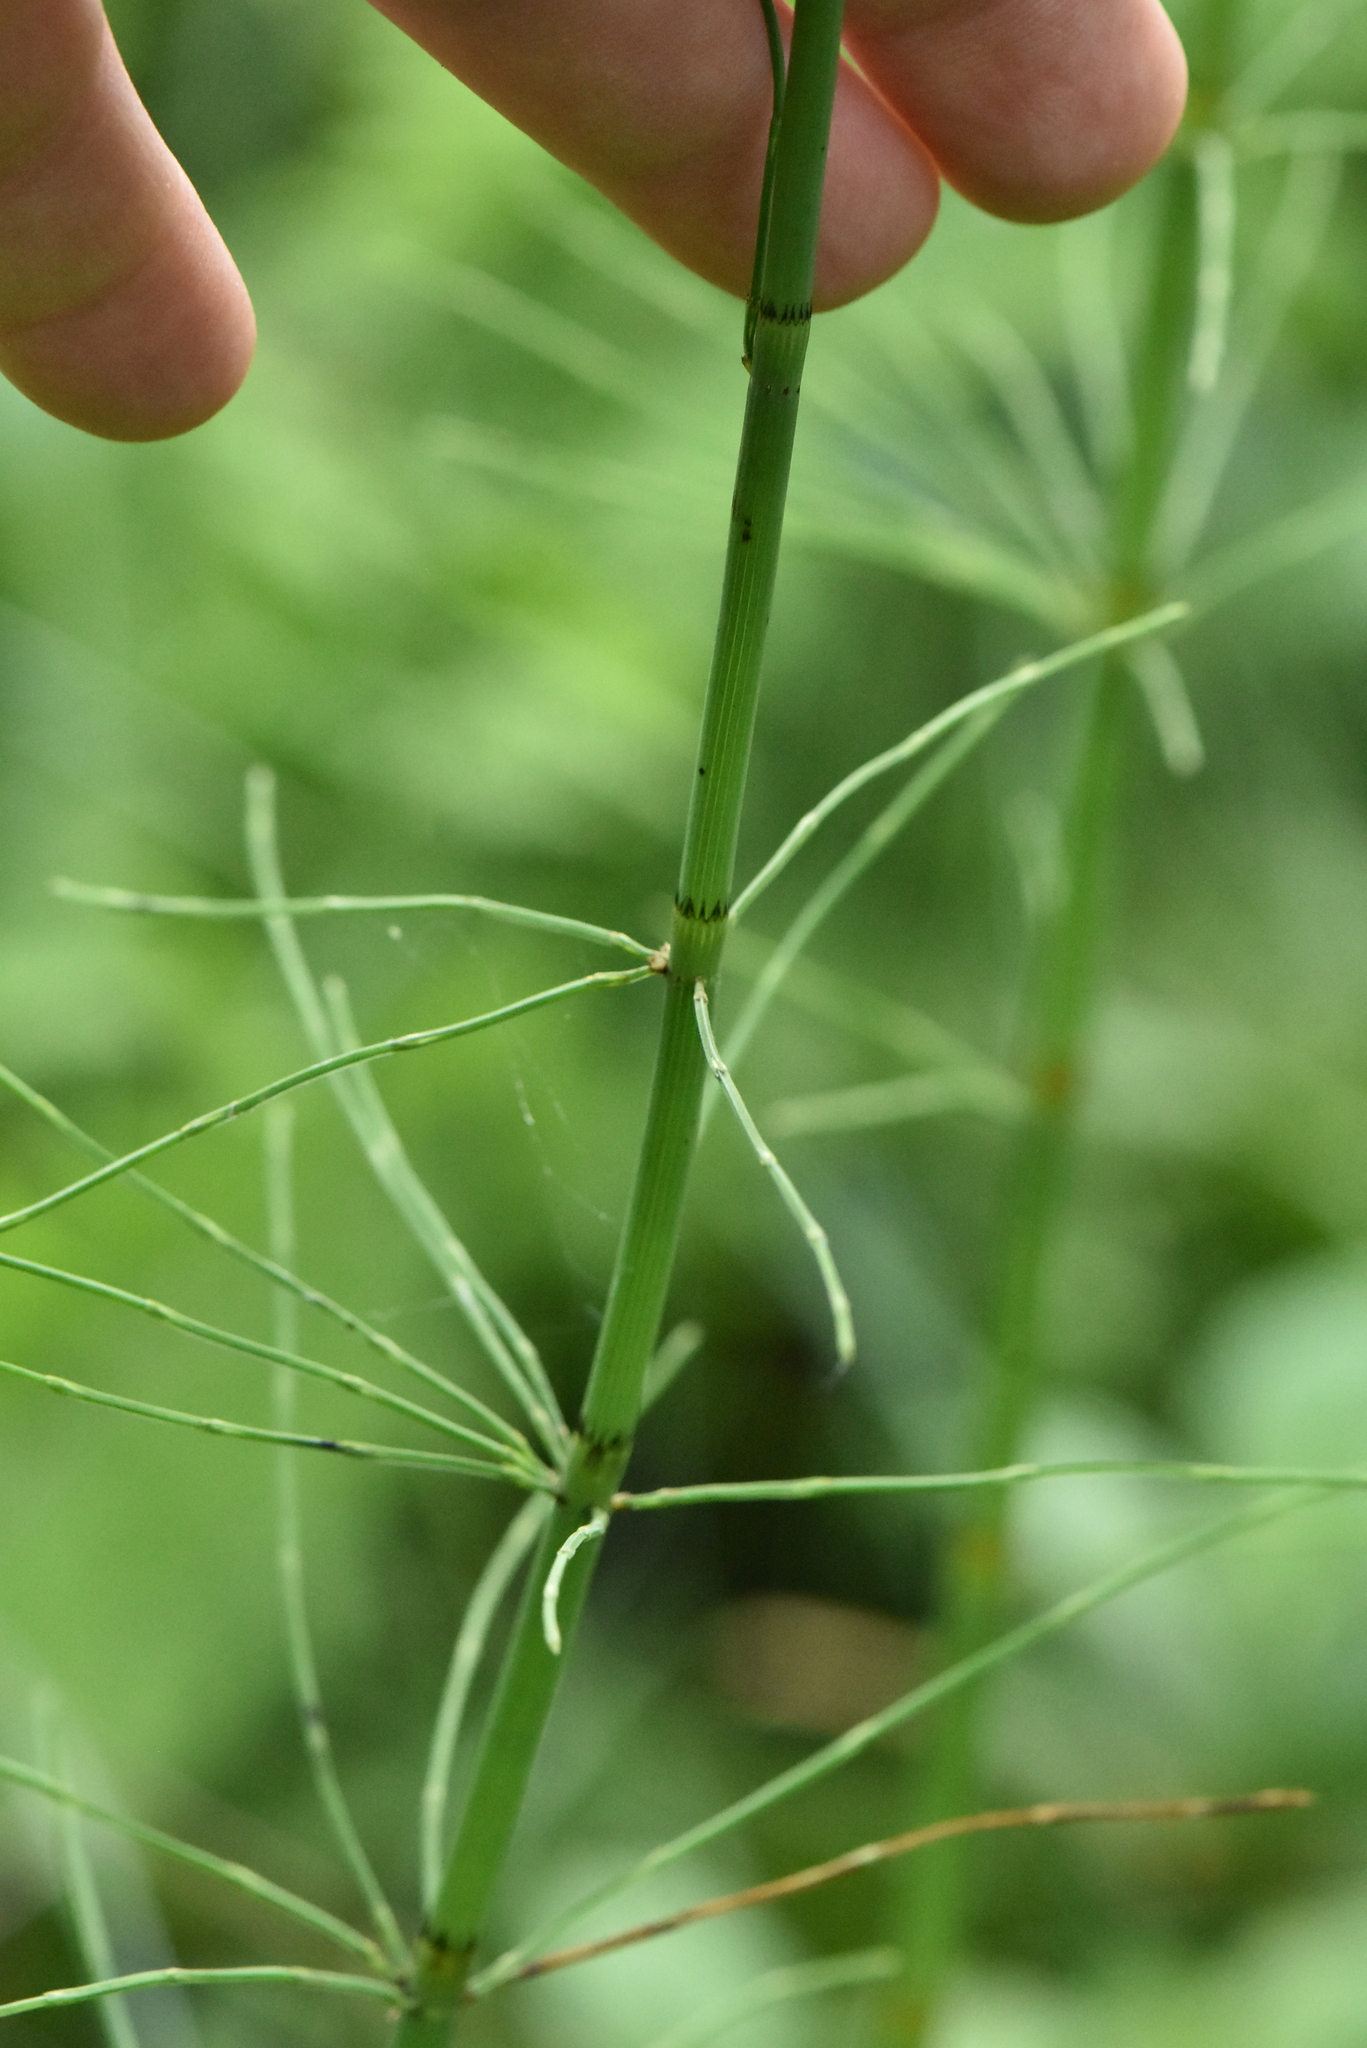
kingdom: Plantae
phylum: Tracheophyta
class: Polypodiopsida
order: Equisetales
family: Equisetaceae
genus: Equisetum
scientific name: Equisetum fluviatile
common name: Water horsetail
